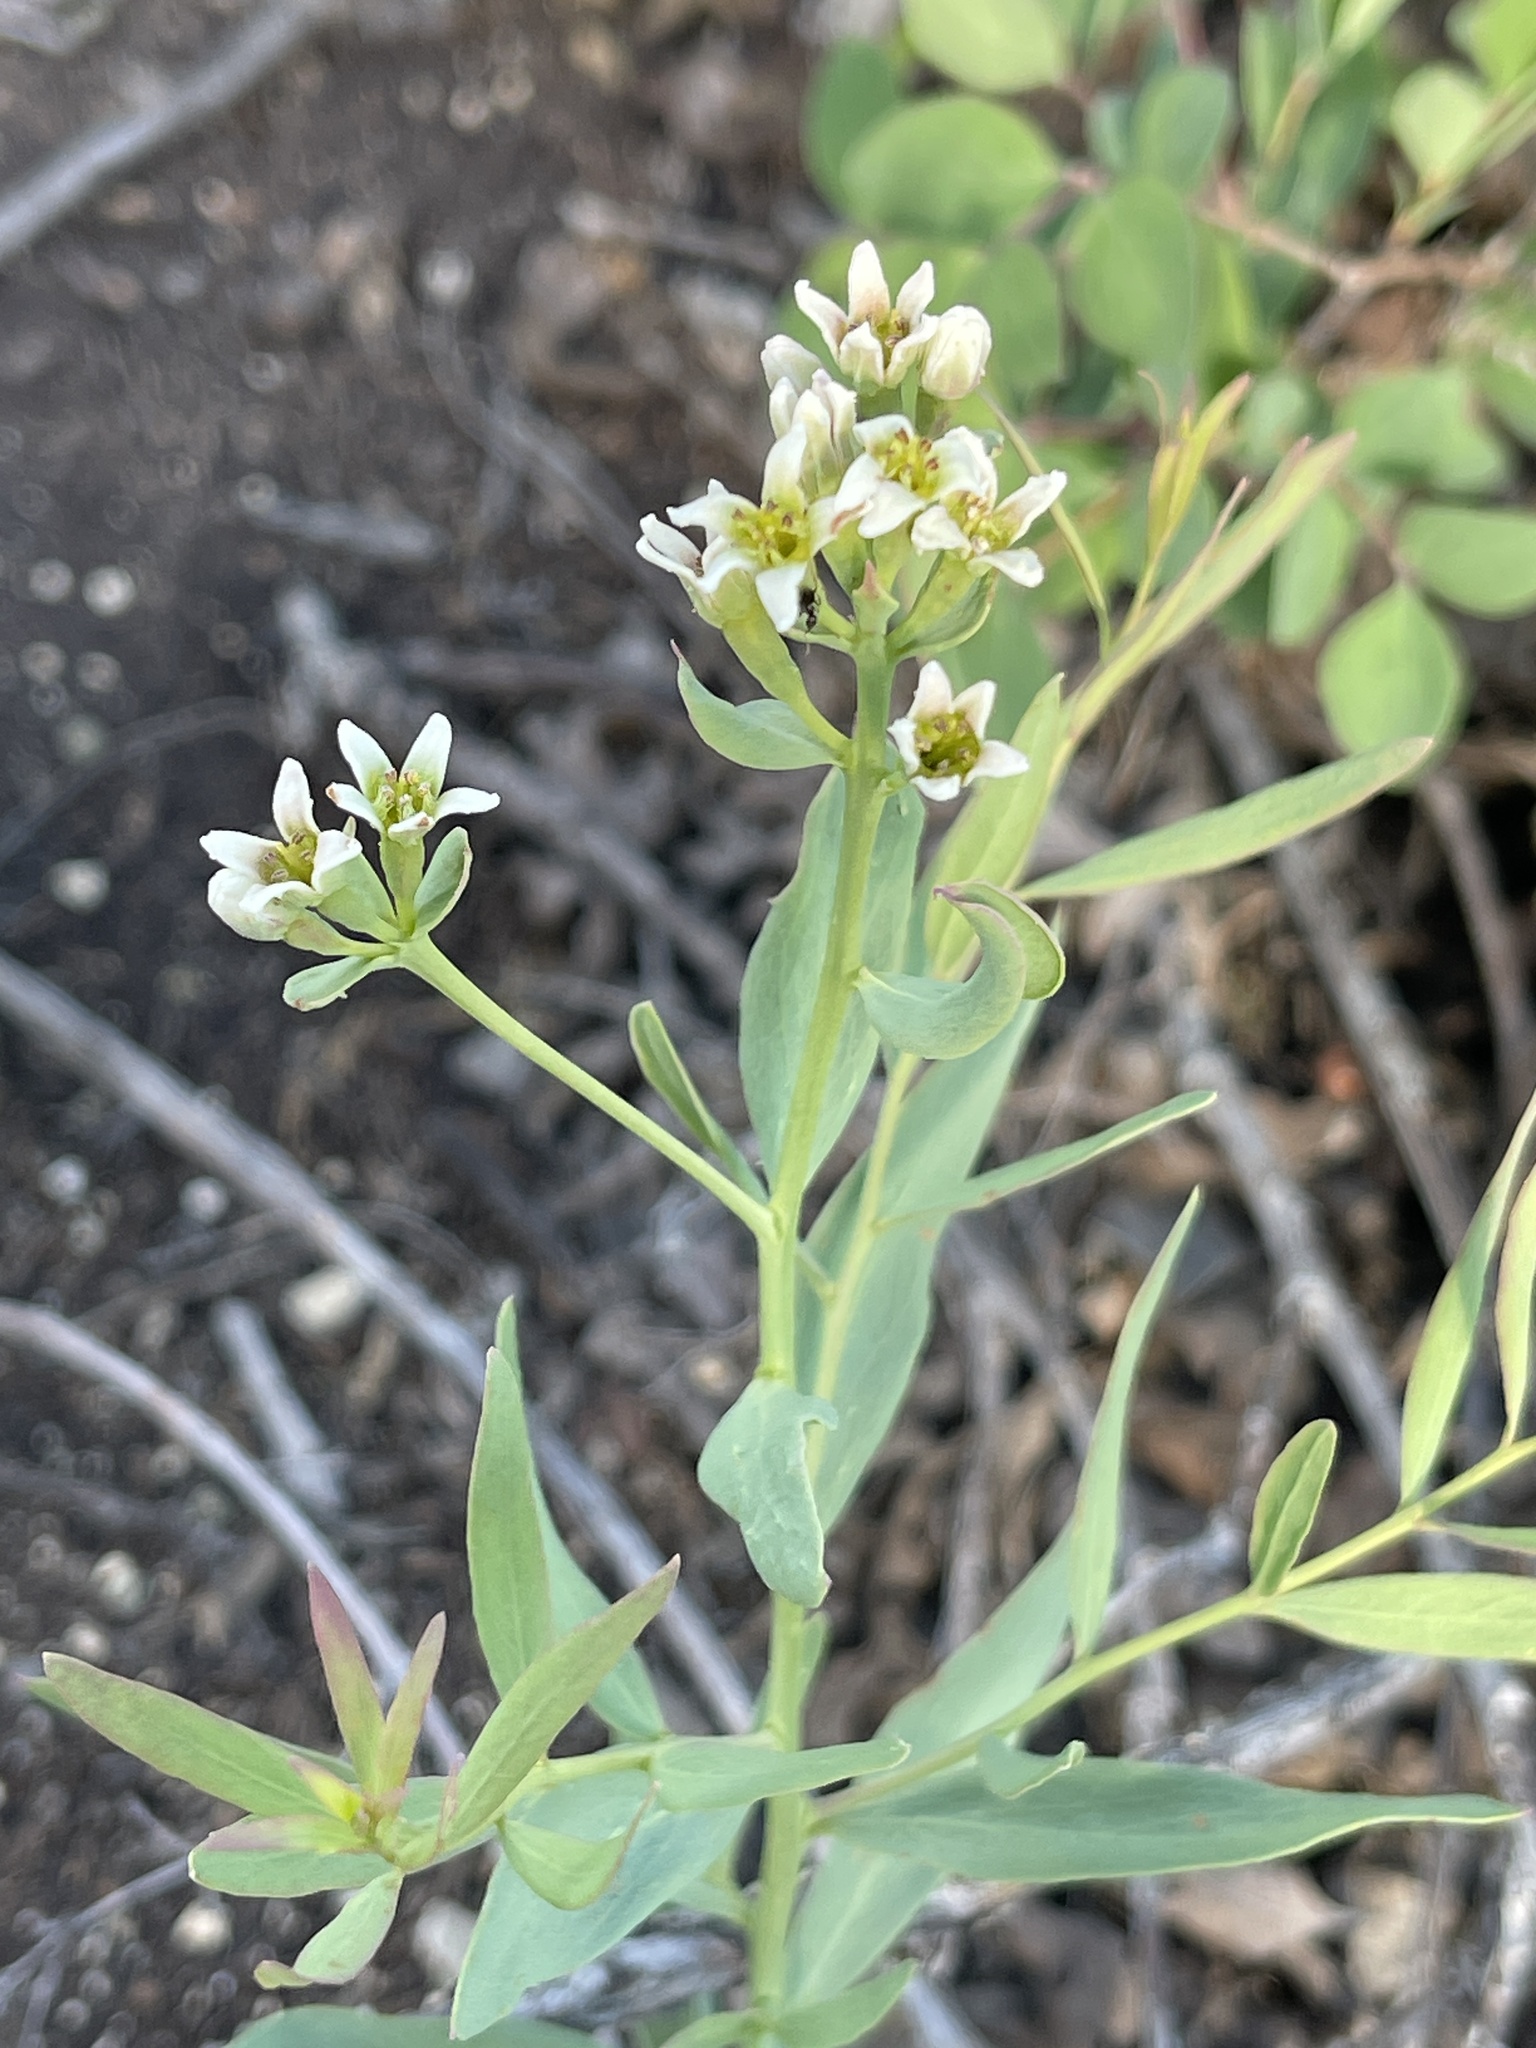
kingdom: Plantae
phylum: Tracheophyta
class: Magnoliopsida
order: Santalales
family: Comandraceae
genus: Comandra
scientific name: Comandra umbellata
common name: Bastard toadflax
